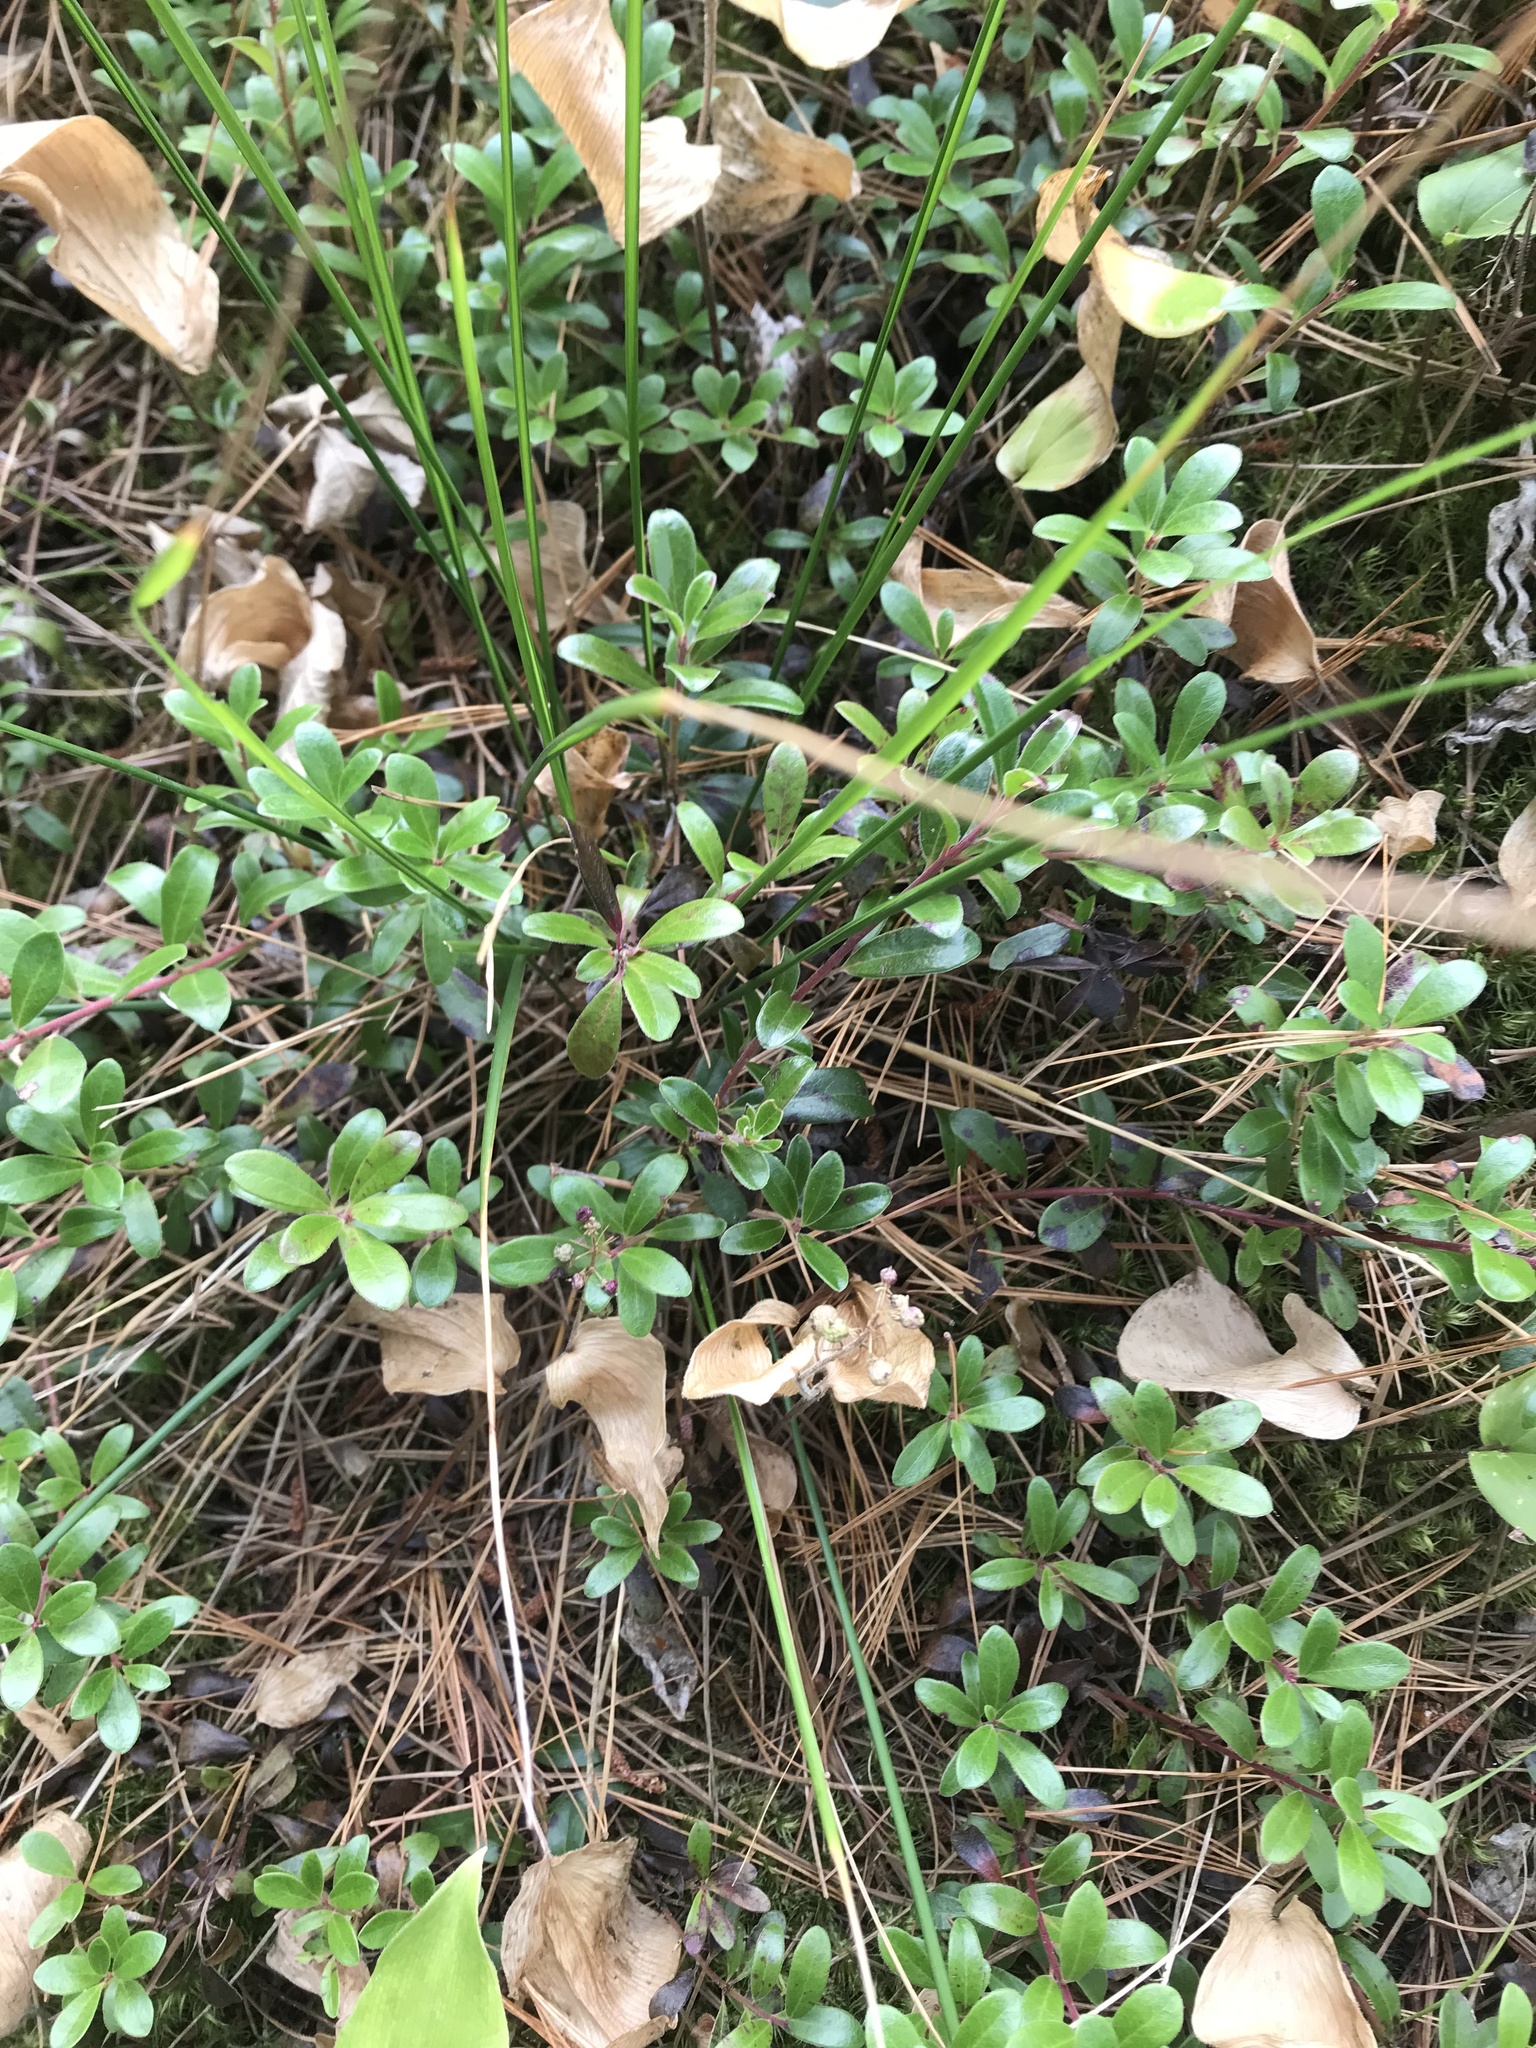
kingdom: Plantae
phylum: Tracheophyta
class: Magnoliopsida
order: Ericales
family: Ericaceae
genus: Arctostaphylos
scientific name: Arctostaphylos uva-ursi
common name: Bearberry
